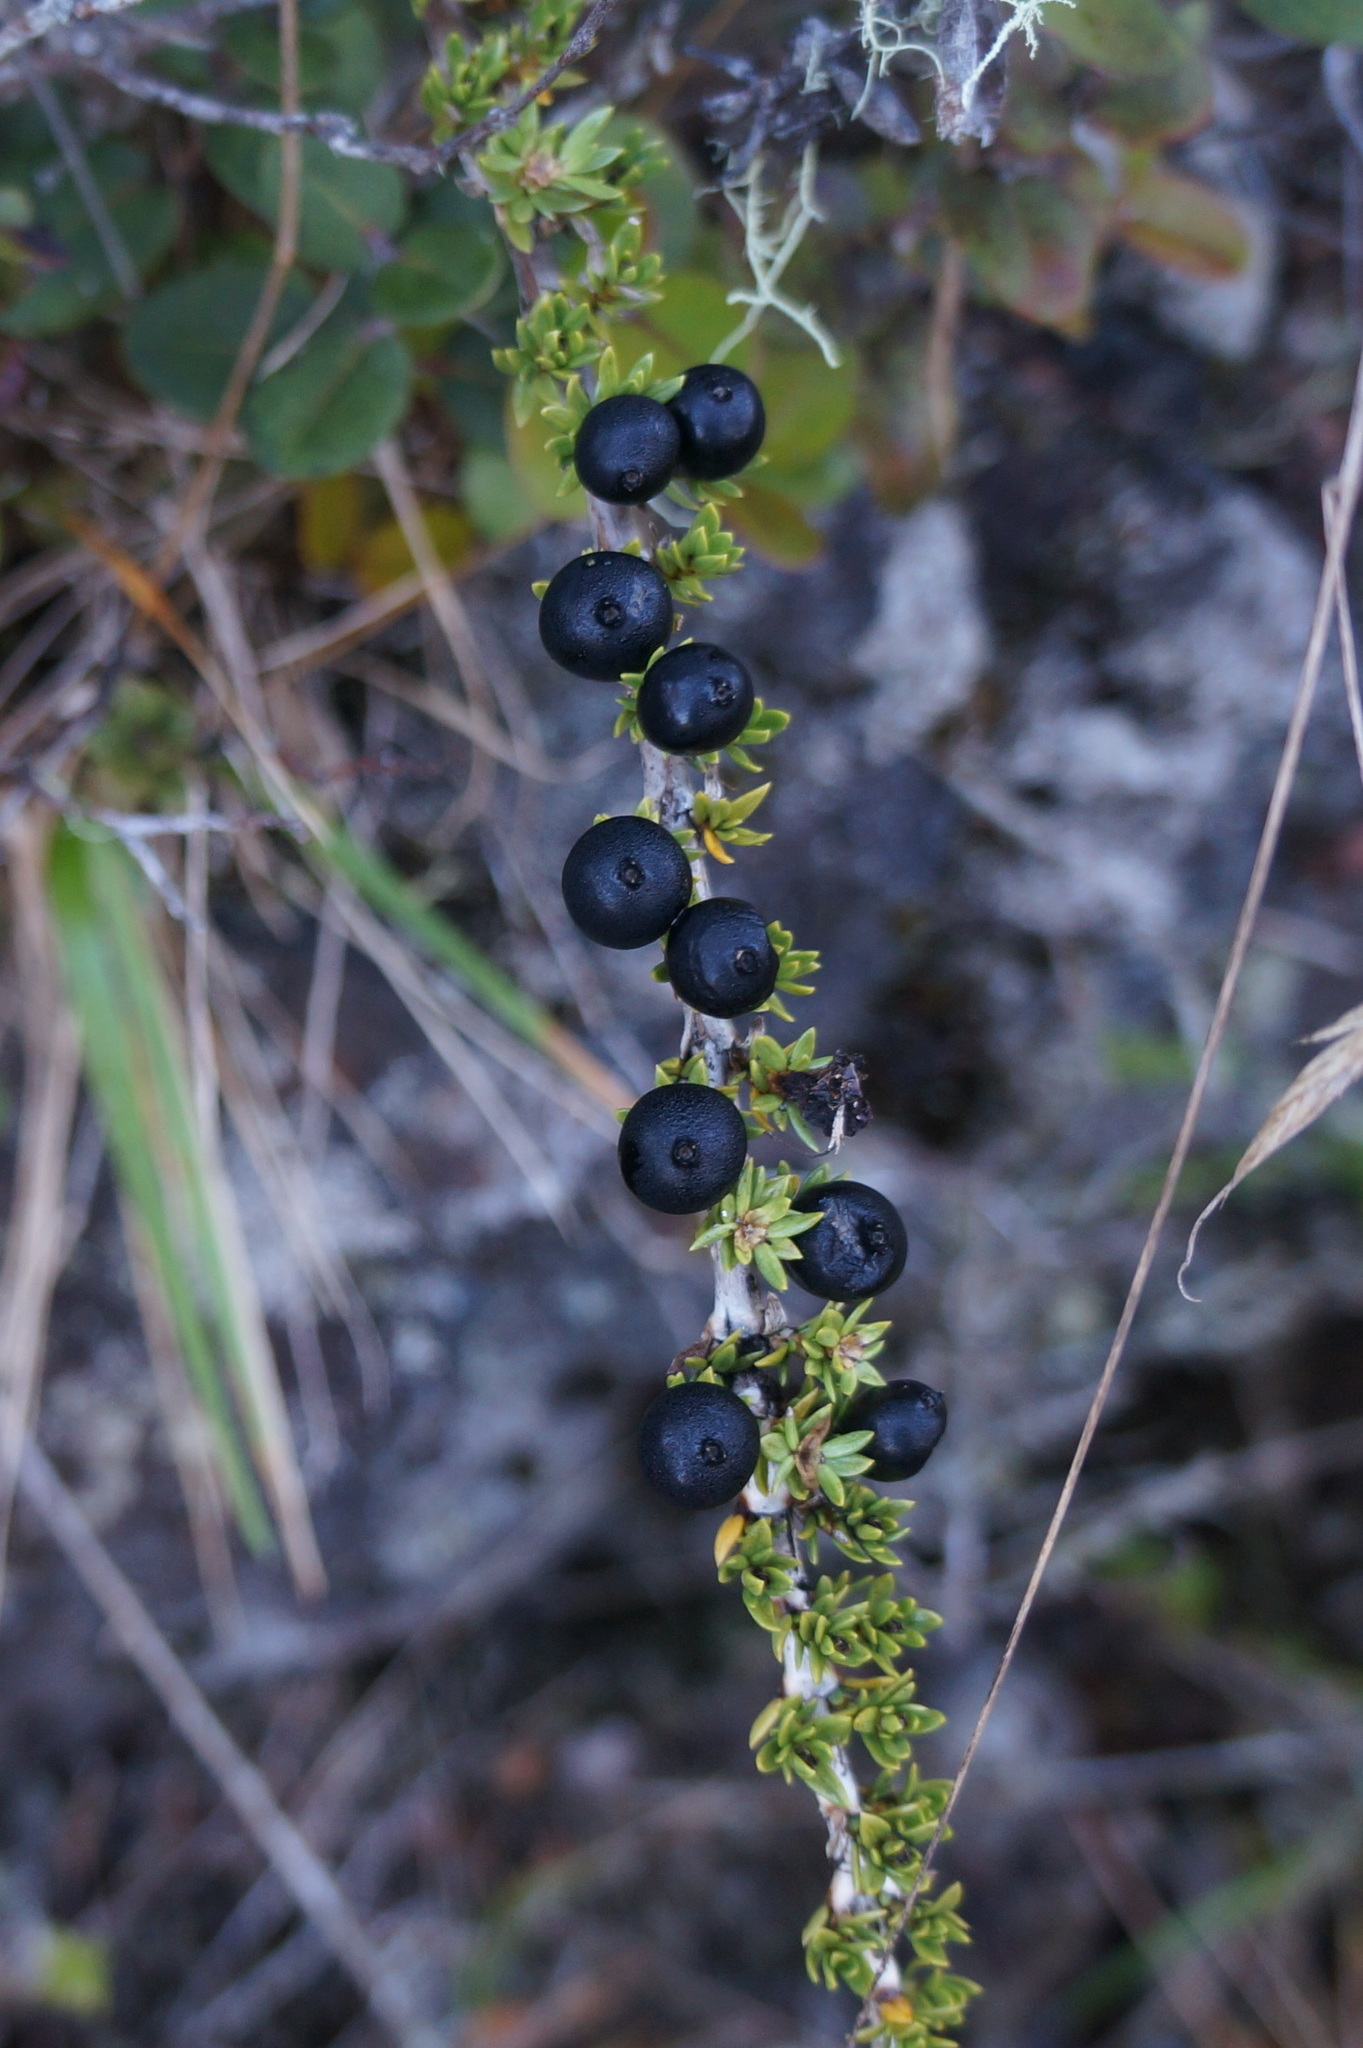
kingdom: Plantae
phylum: Tracheophyta
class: Magnoliopsida
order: Gentianales
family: Rubiaceae
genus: Coprosma
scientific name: Coprosma ernodeoides
